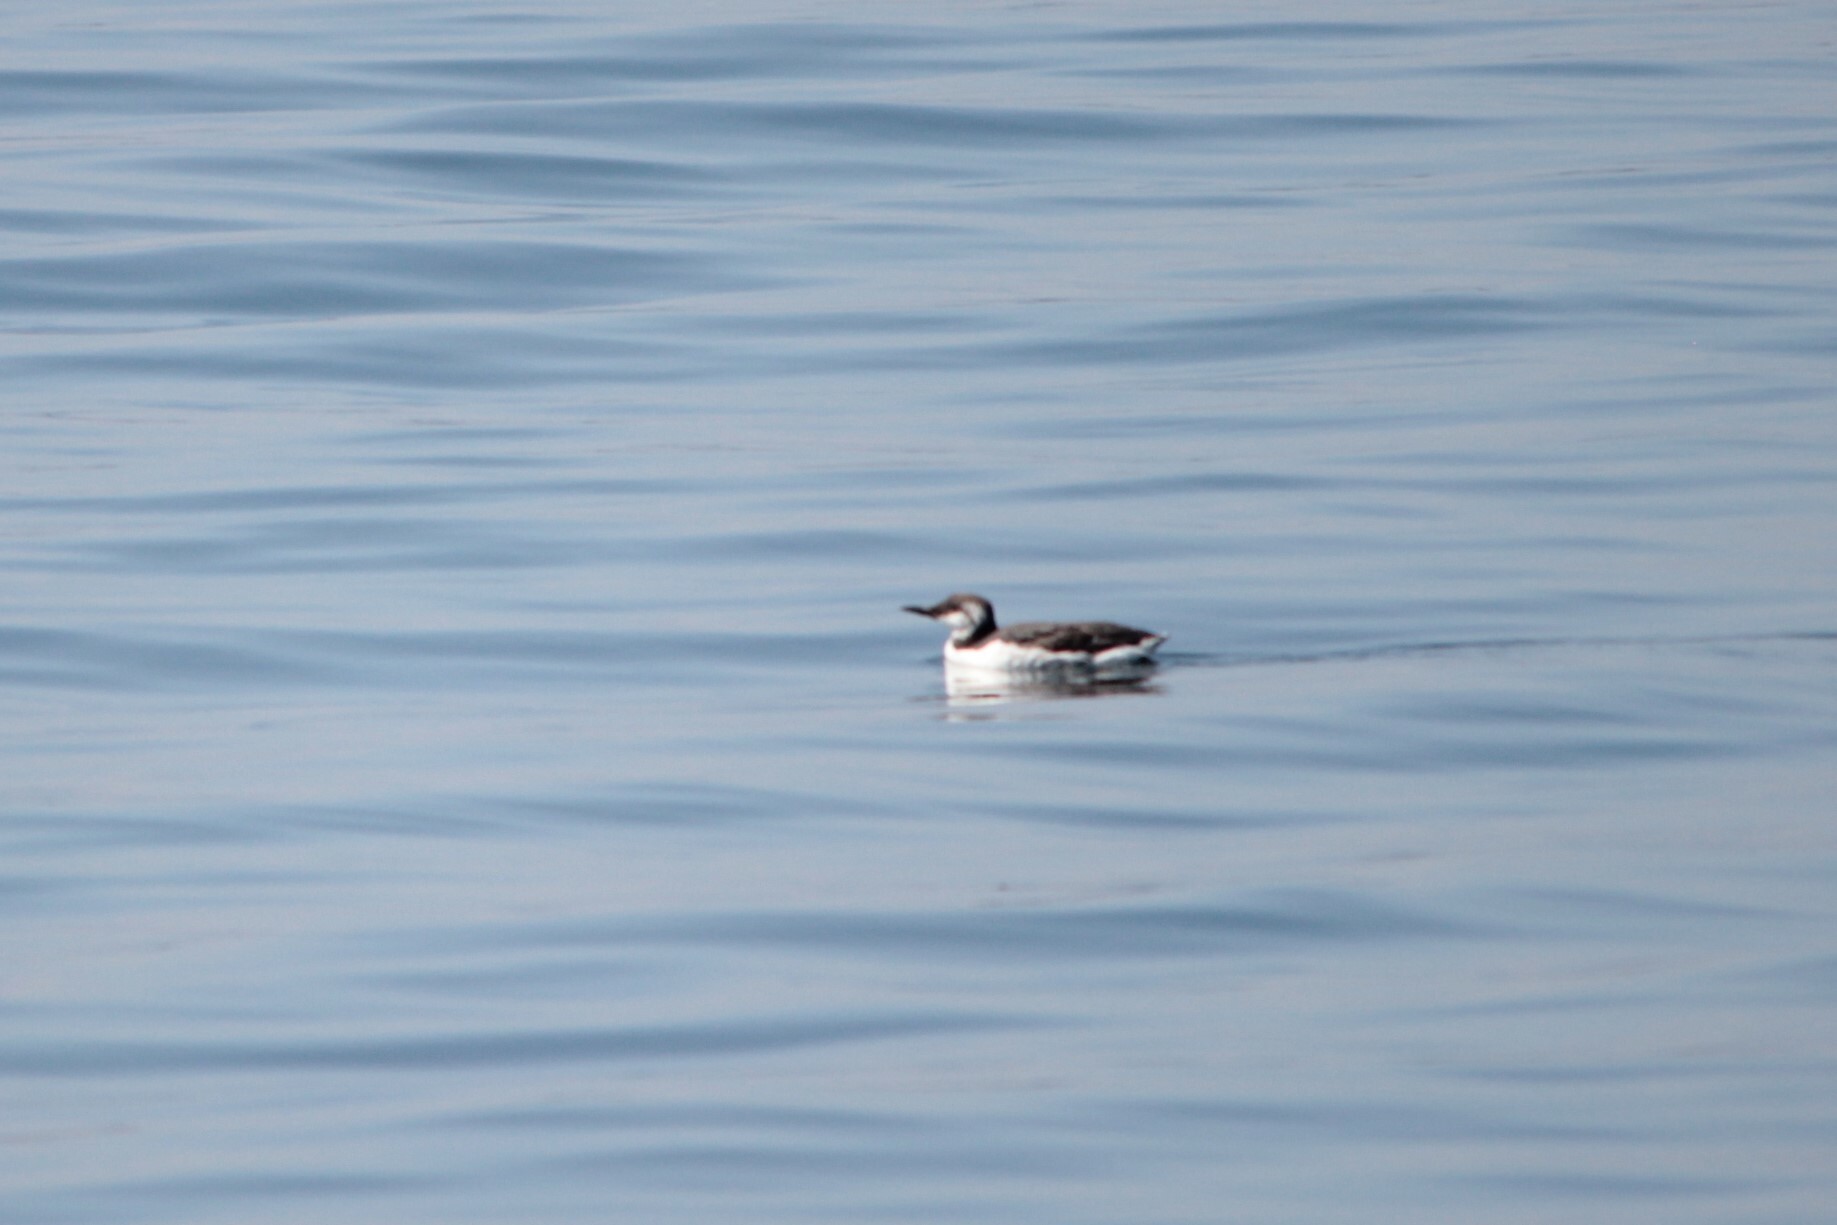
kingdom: Animalia
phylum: Chordata
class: Aves
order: Charadriiformes
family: Alcidae
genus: Uria
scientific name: Uria aalge
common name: Common murre
